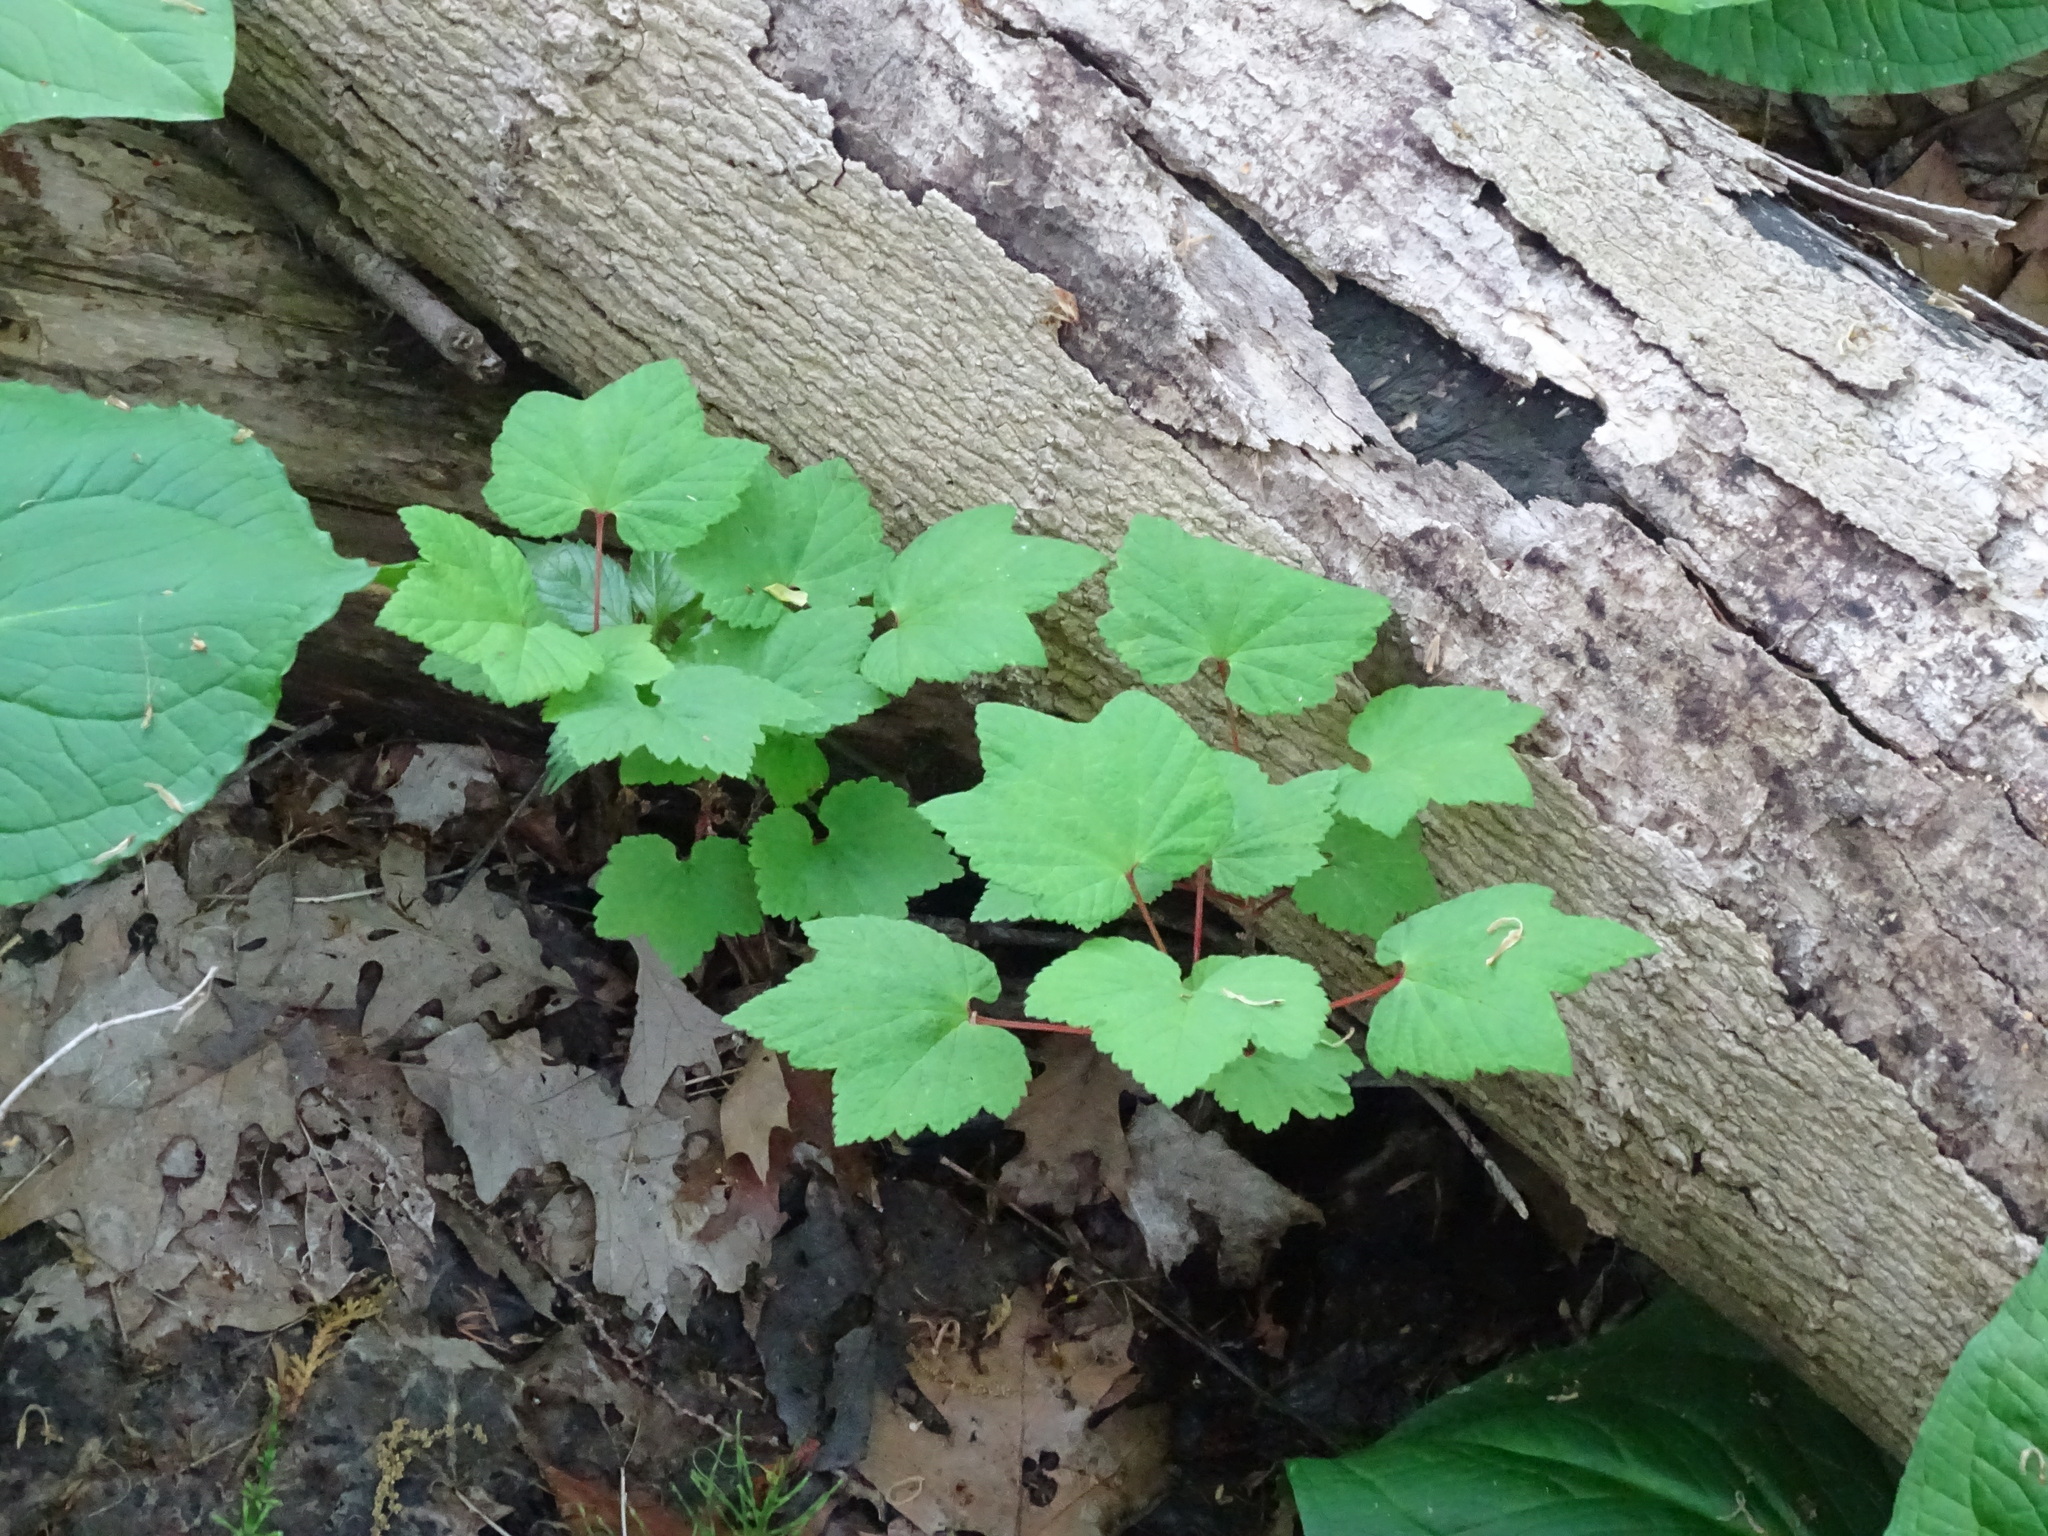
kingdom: Plantae
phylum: Tracheophyta
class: Magnoliopsida
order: Saxifragales
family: Grossulariaceae
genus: Ribes
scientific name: Ribes triste
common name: Swamp red currant
